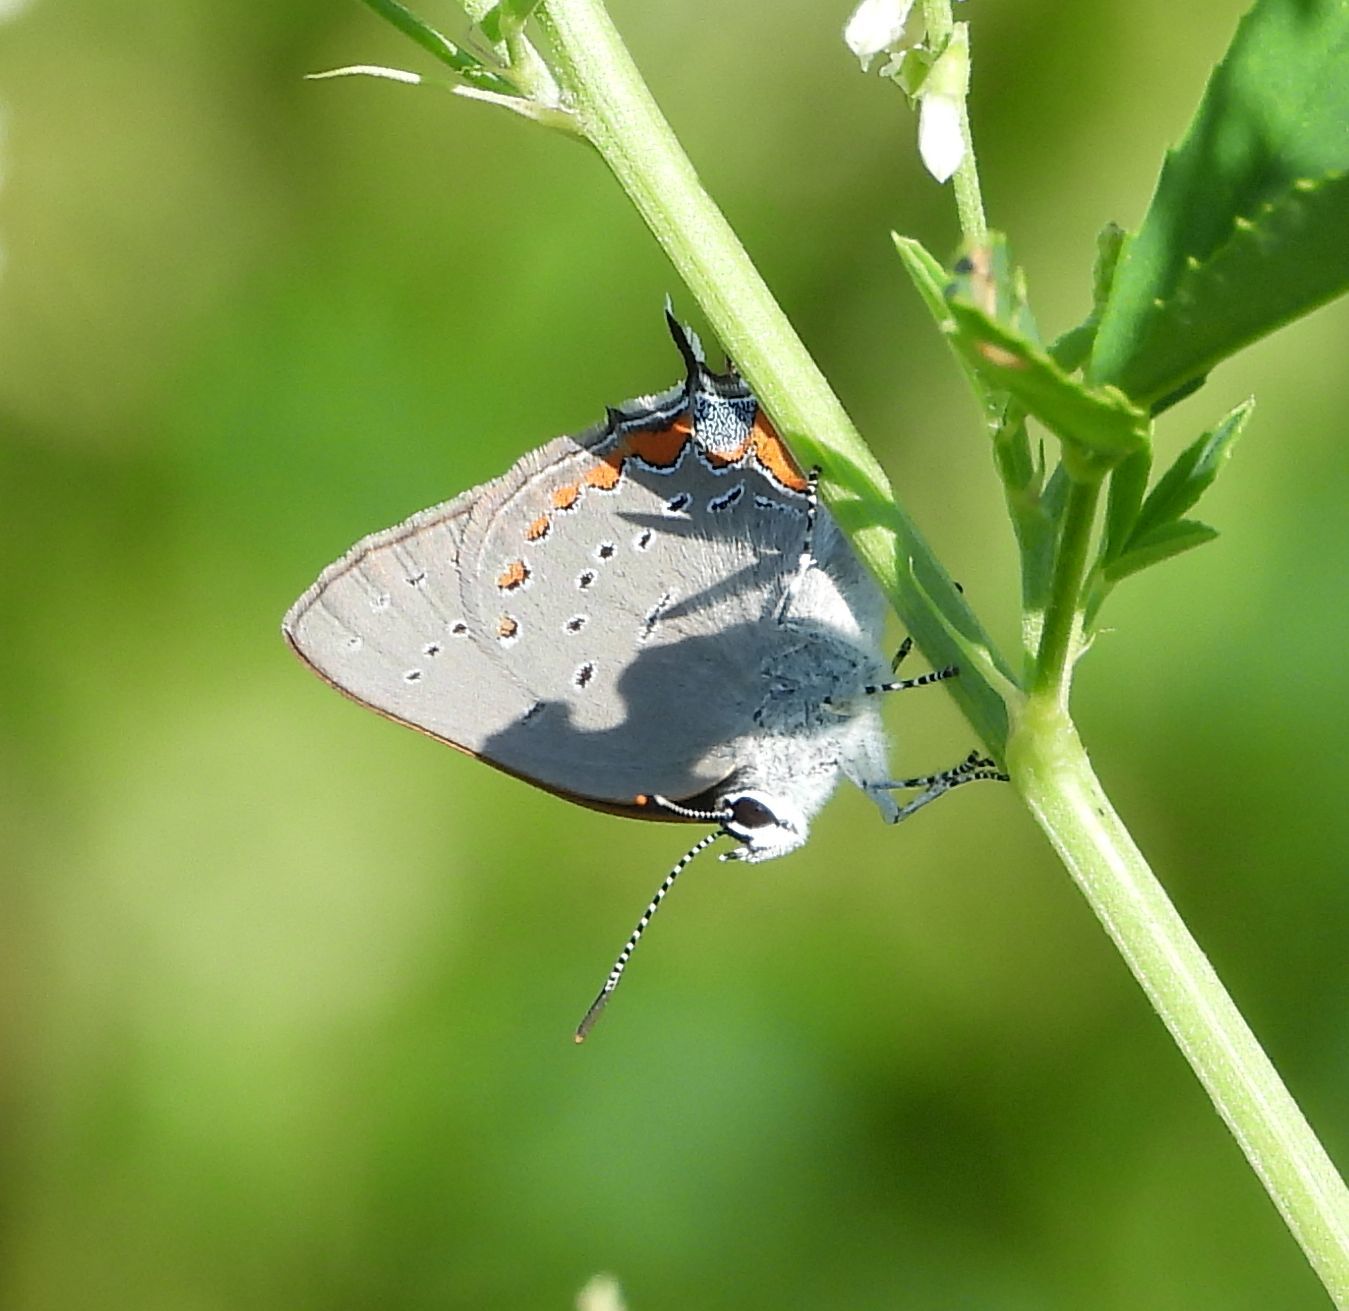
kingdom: Animalia
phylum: Arthropoda
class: Insecta
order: Lepidoptera
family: Lycaenidae
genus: Strymon
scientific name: Strymon acadica
